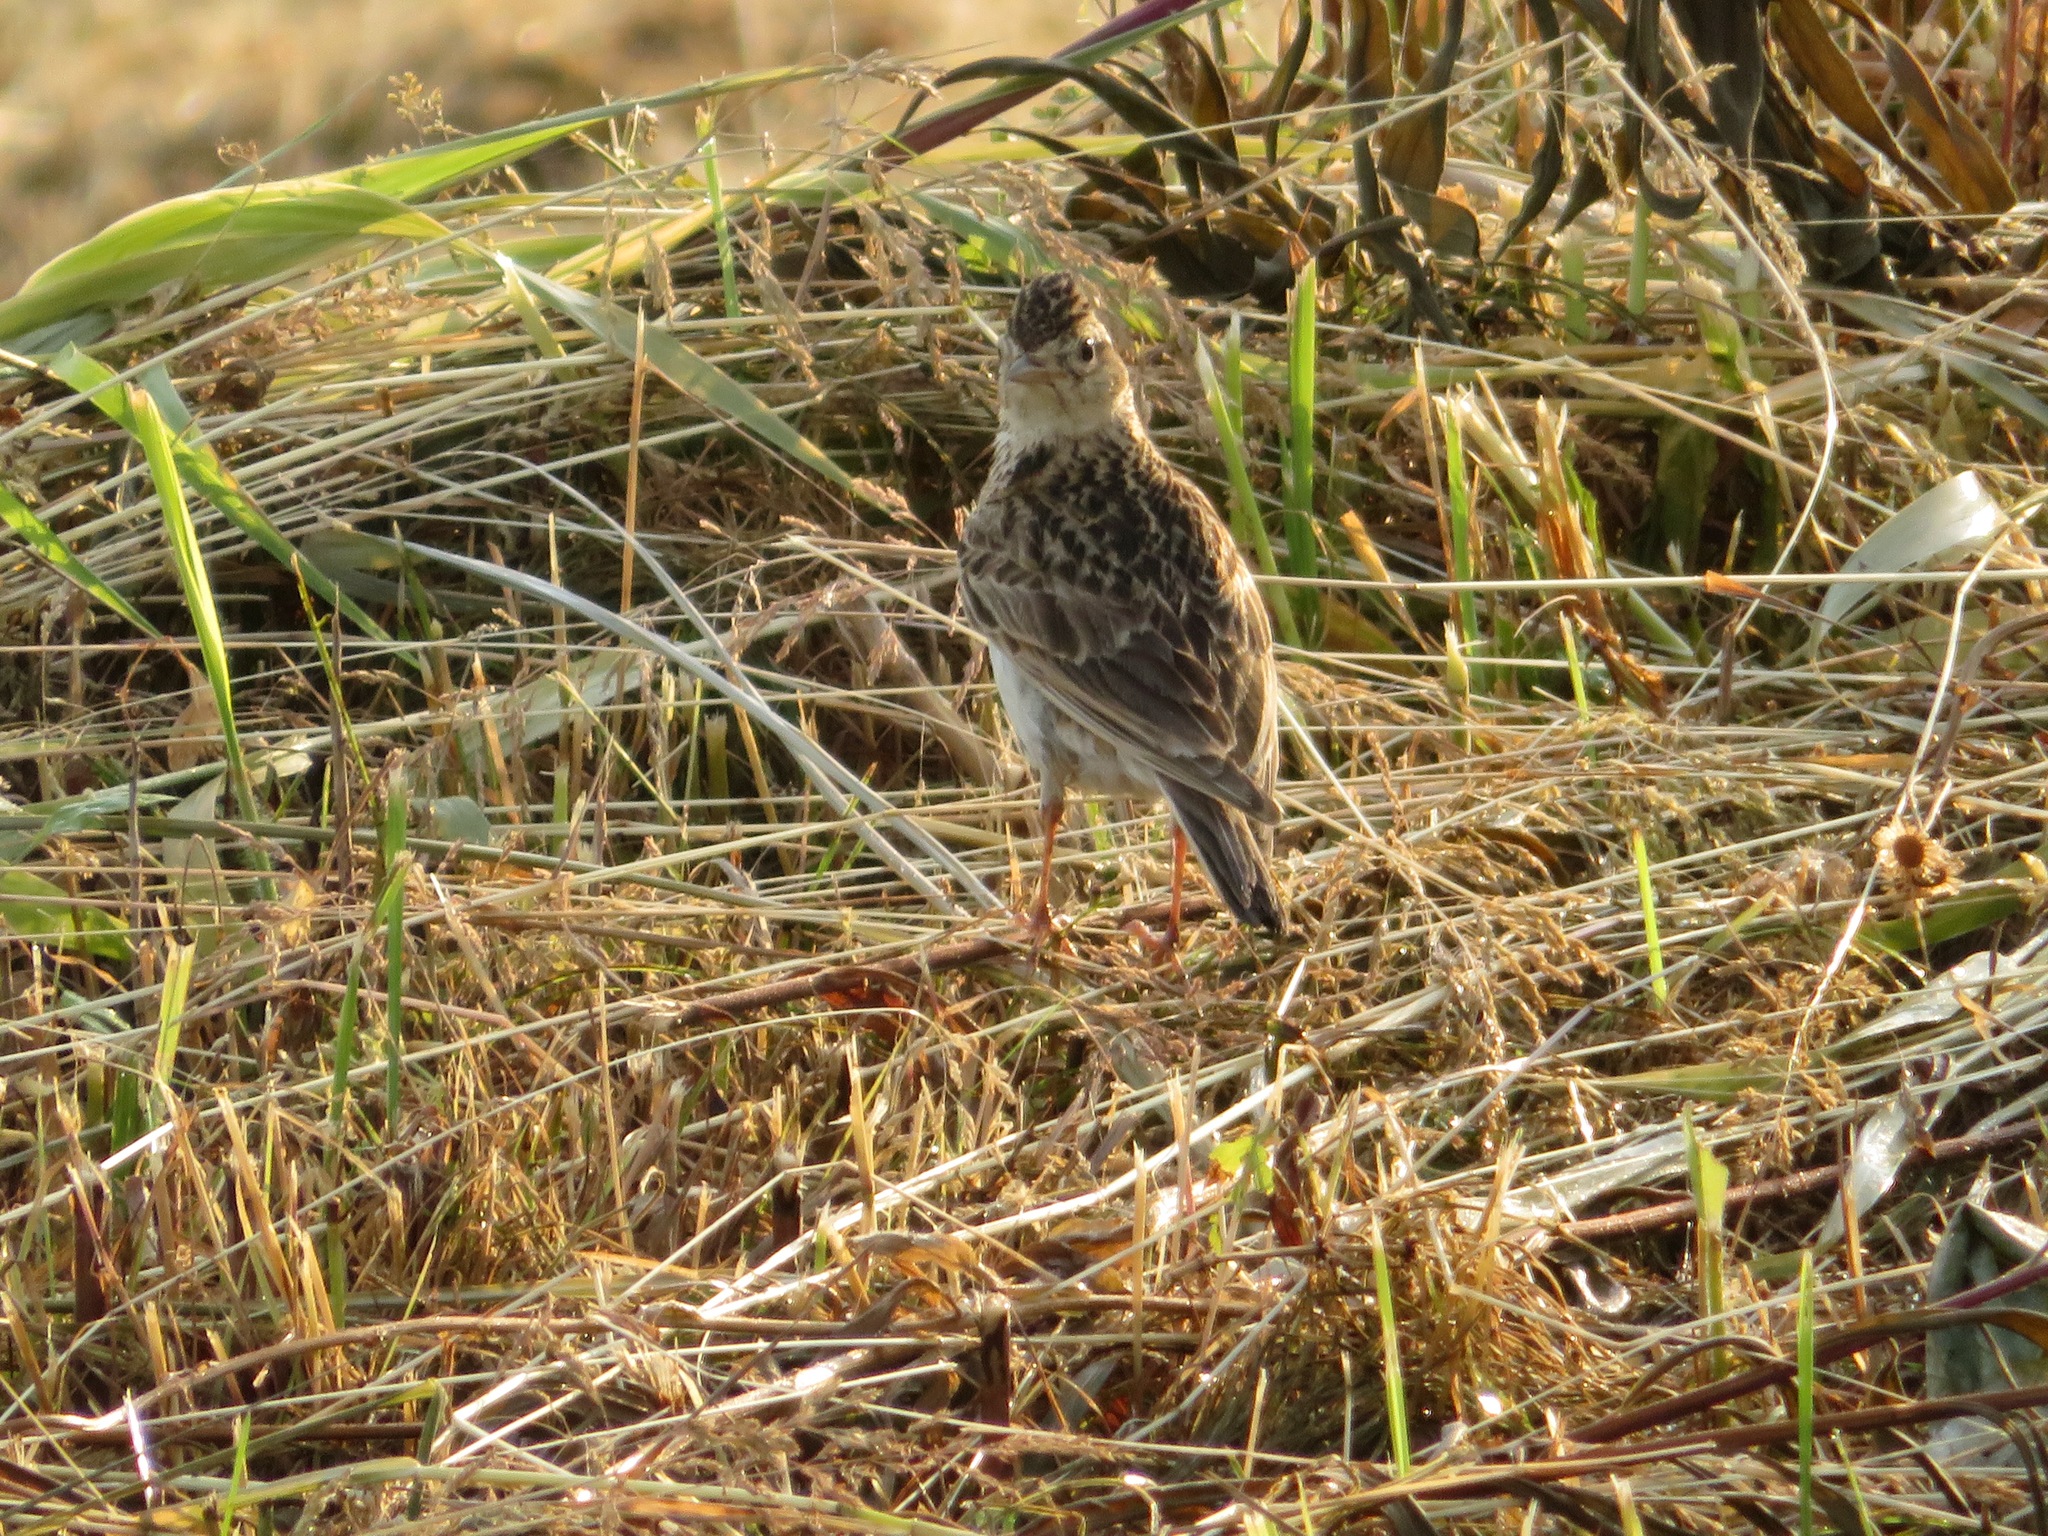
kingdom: Animalia
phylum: Chordata
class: Aves
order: Passeriformes
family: Alaudidae
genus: Alauda
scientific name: Alauda arvensis
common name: Eurasian skylark
